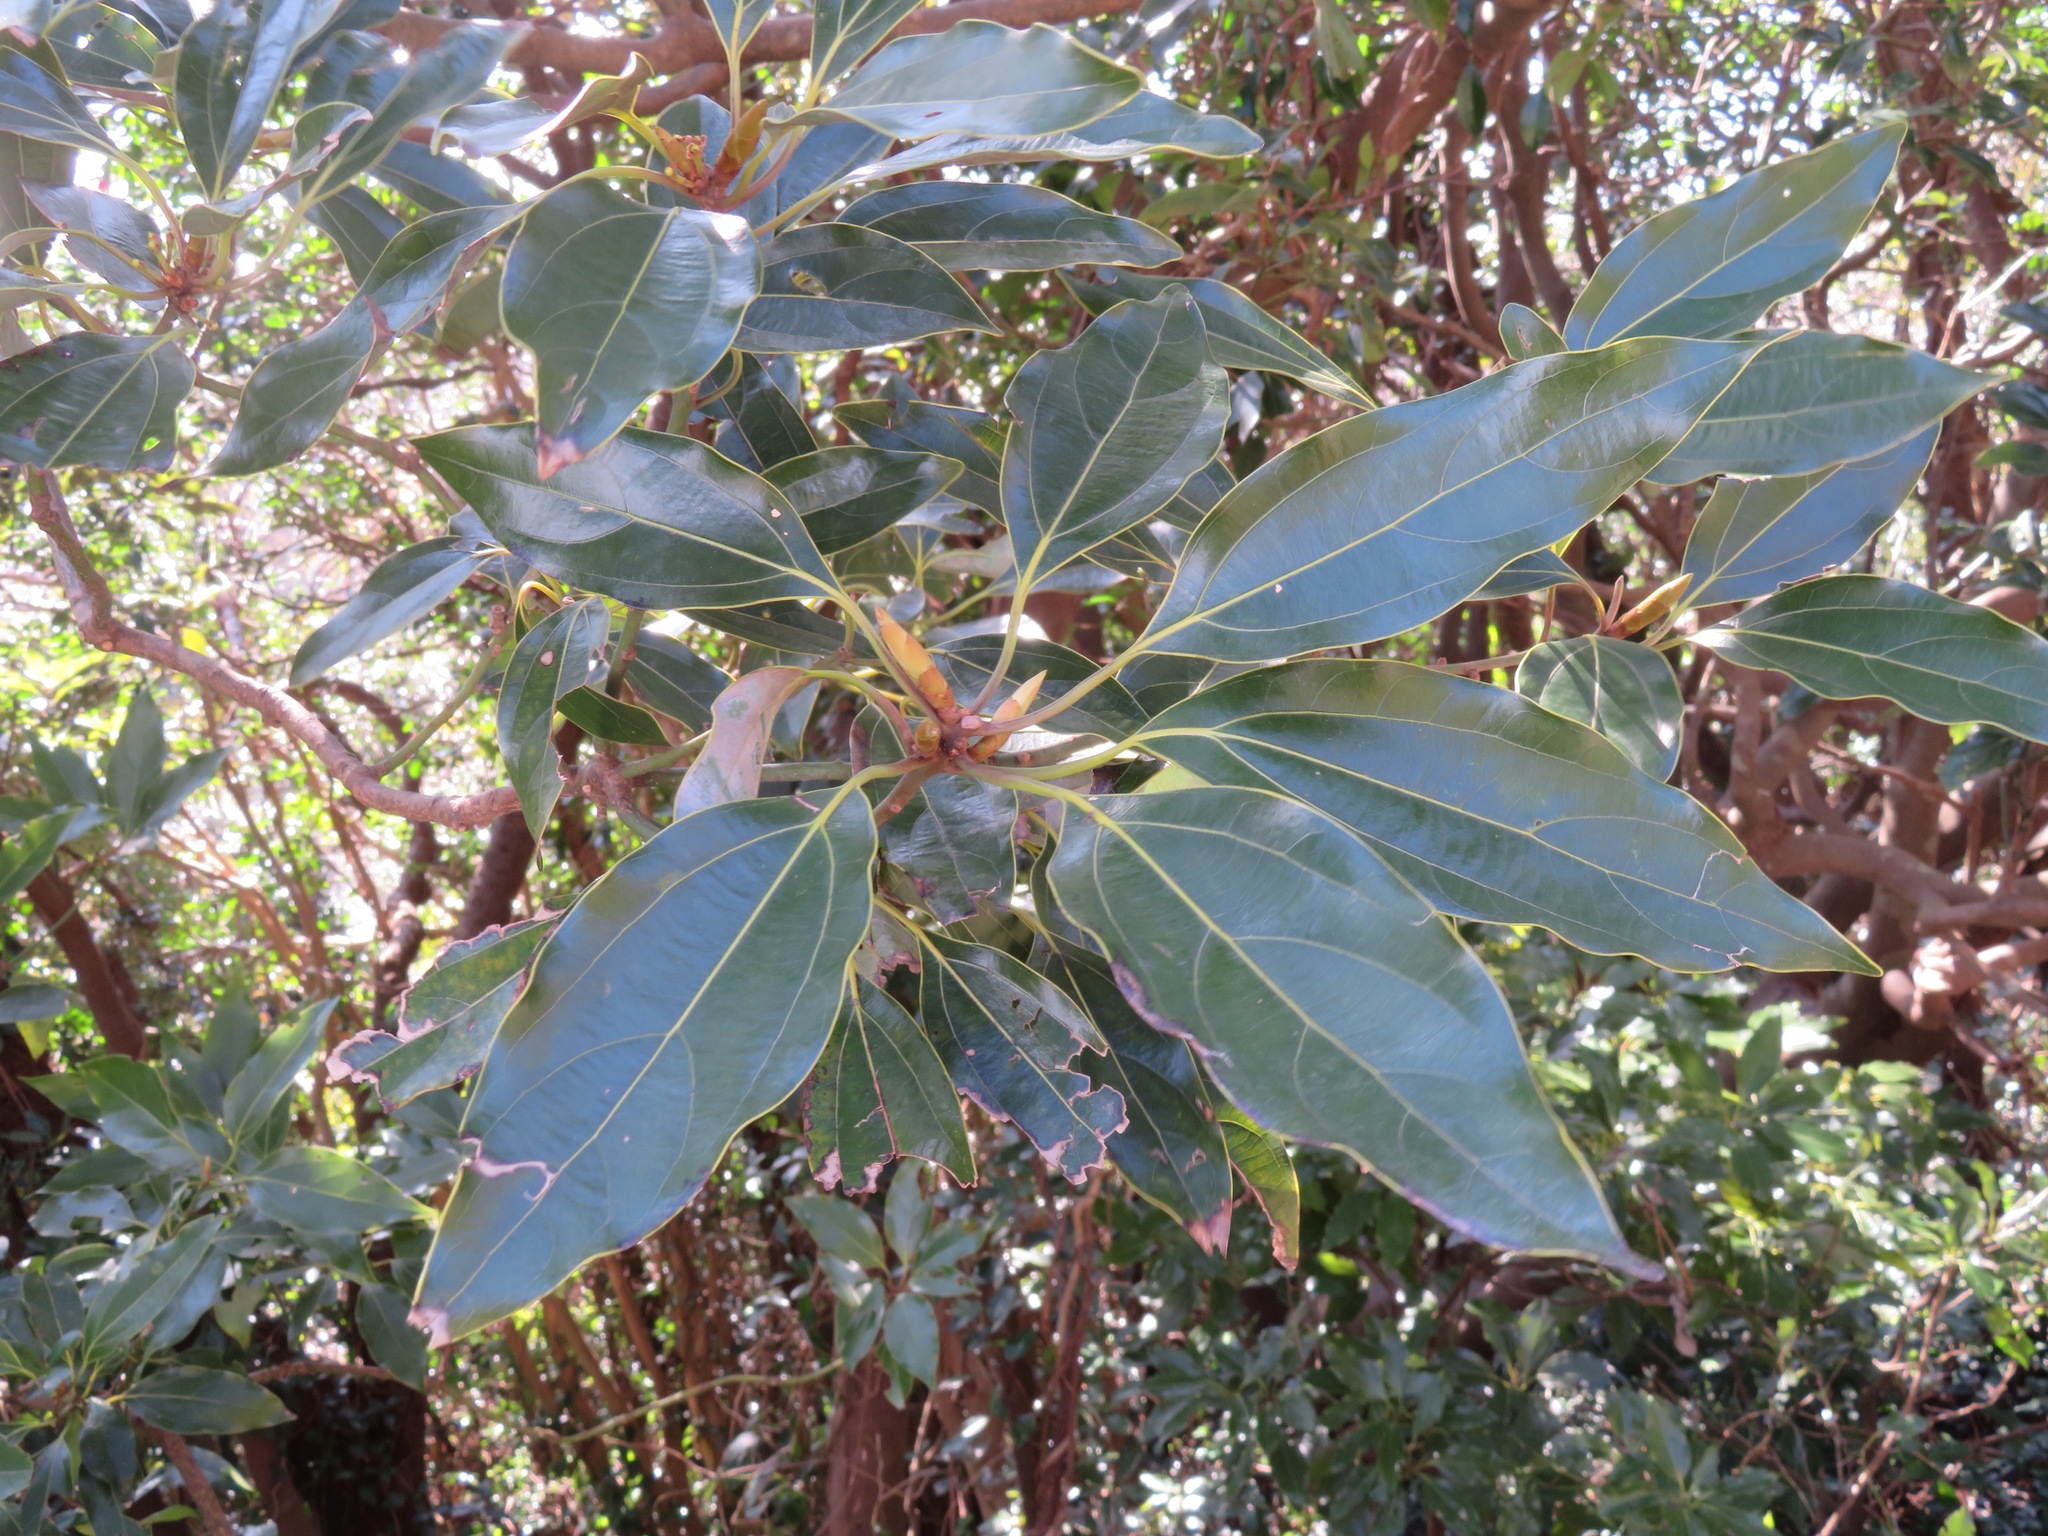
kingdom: Plantae
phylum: Tracheophyta
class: Magnoliopsida
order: Laurales
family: Lauraceae
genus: Neolitsea
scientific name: Neolitsea sericea
